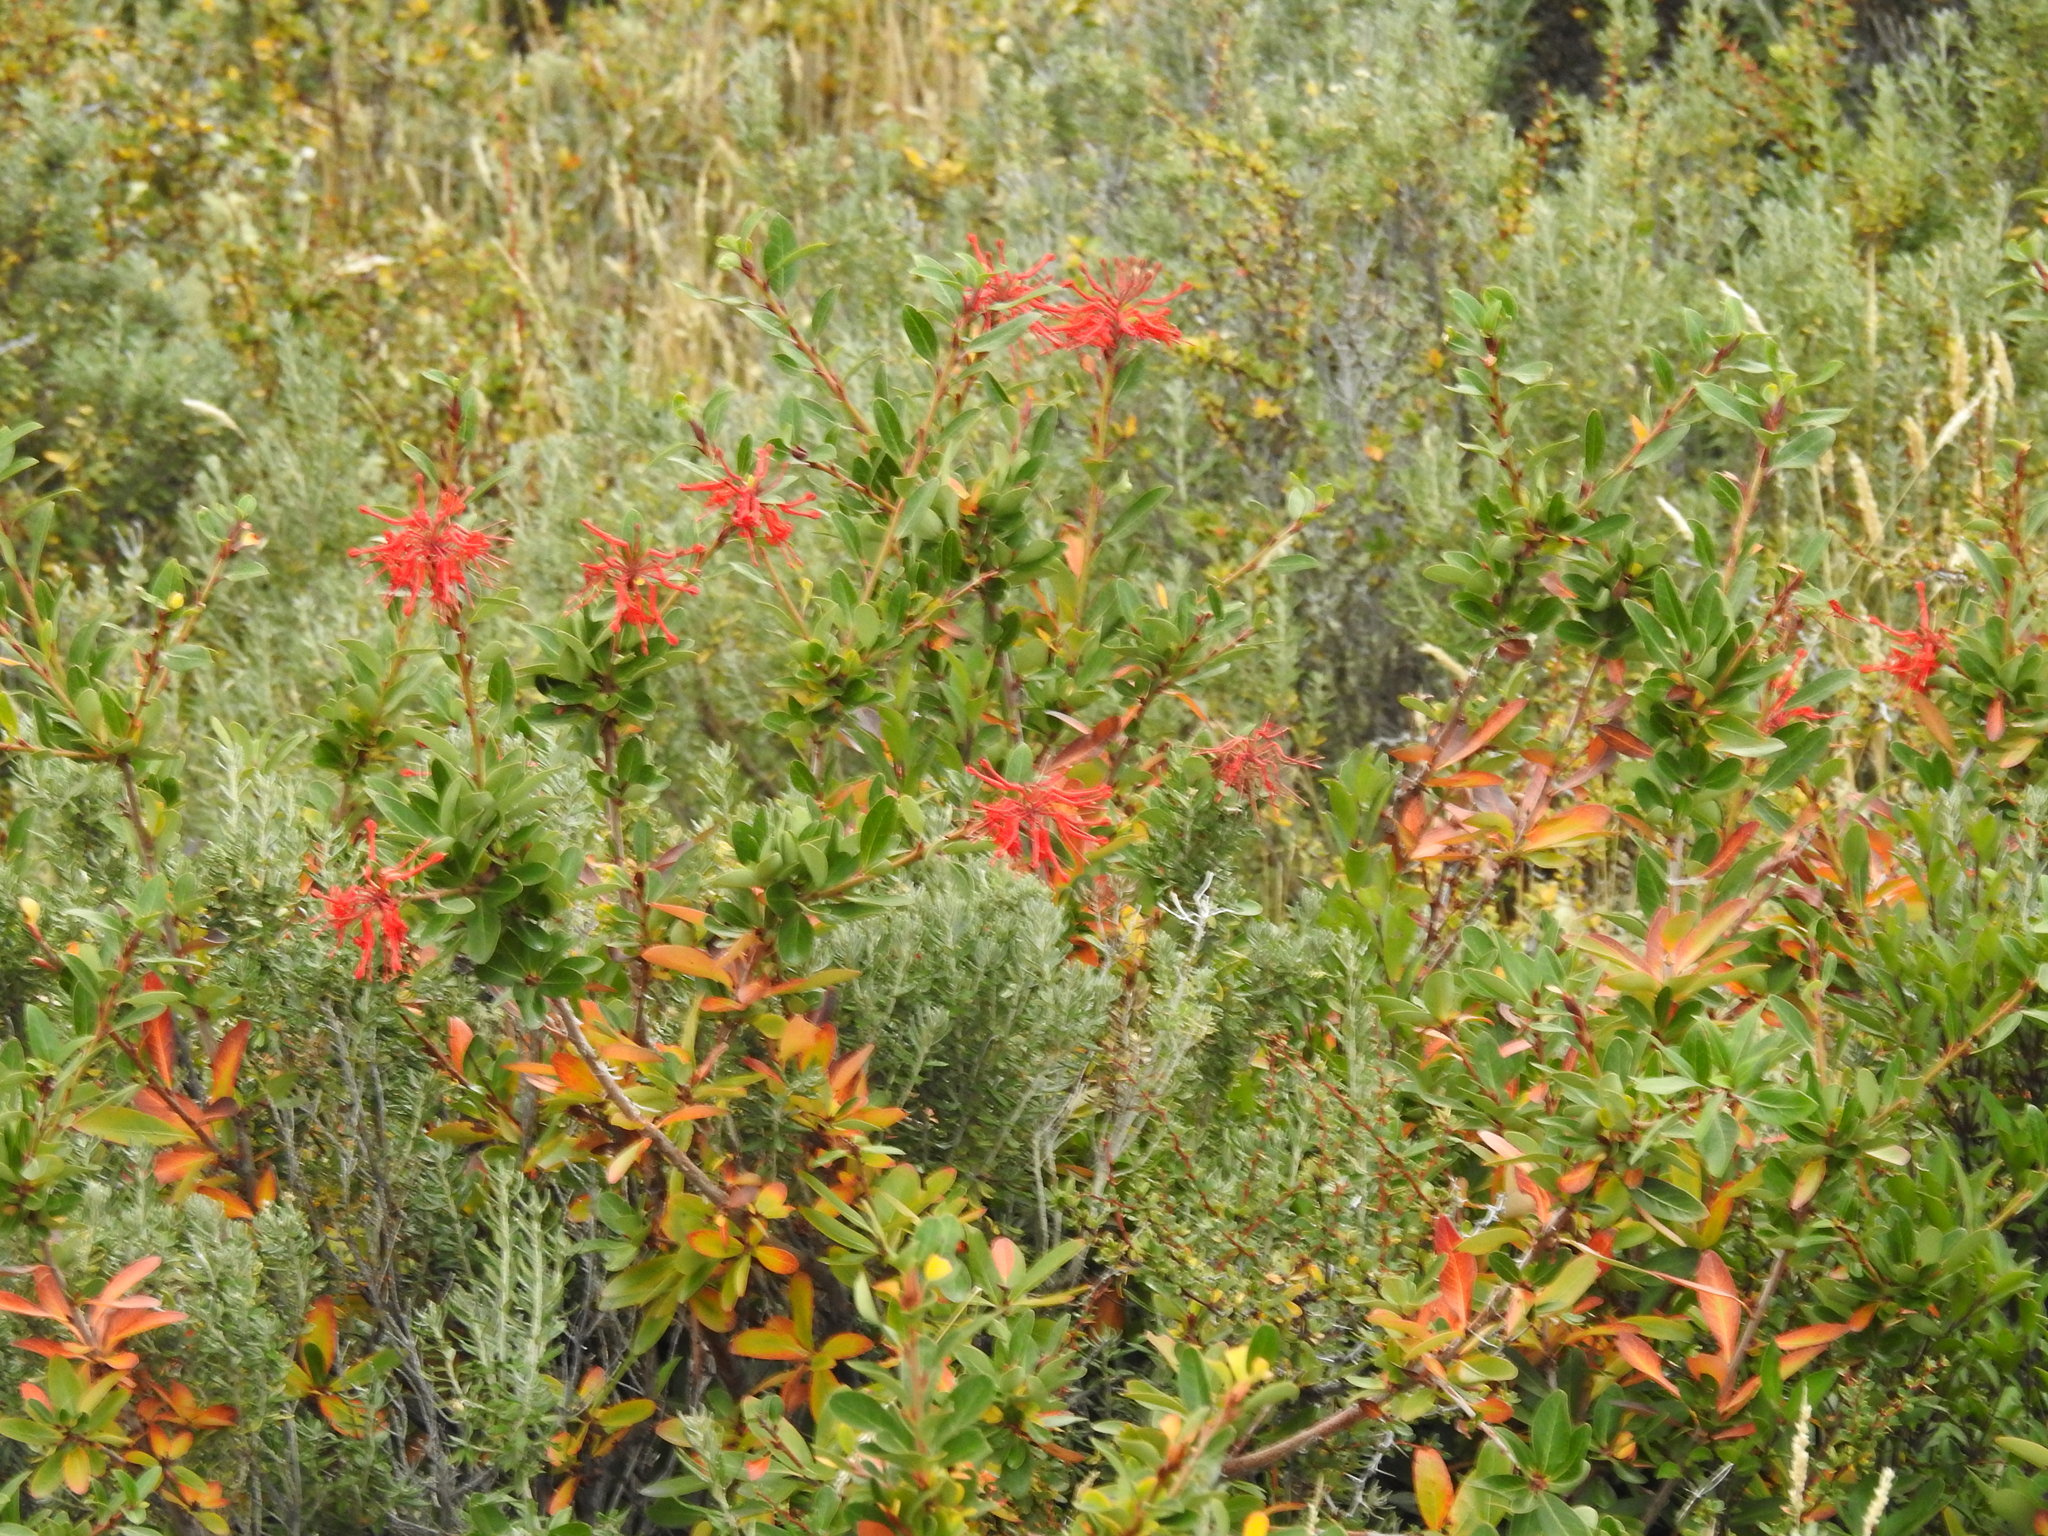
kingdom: Plantae
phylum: Tracheophyta
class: Magnoliopsida
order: Proteales
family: Proteaceae
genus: Embothrium
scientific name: Embothrium coccineum
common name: Chilean firebush
